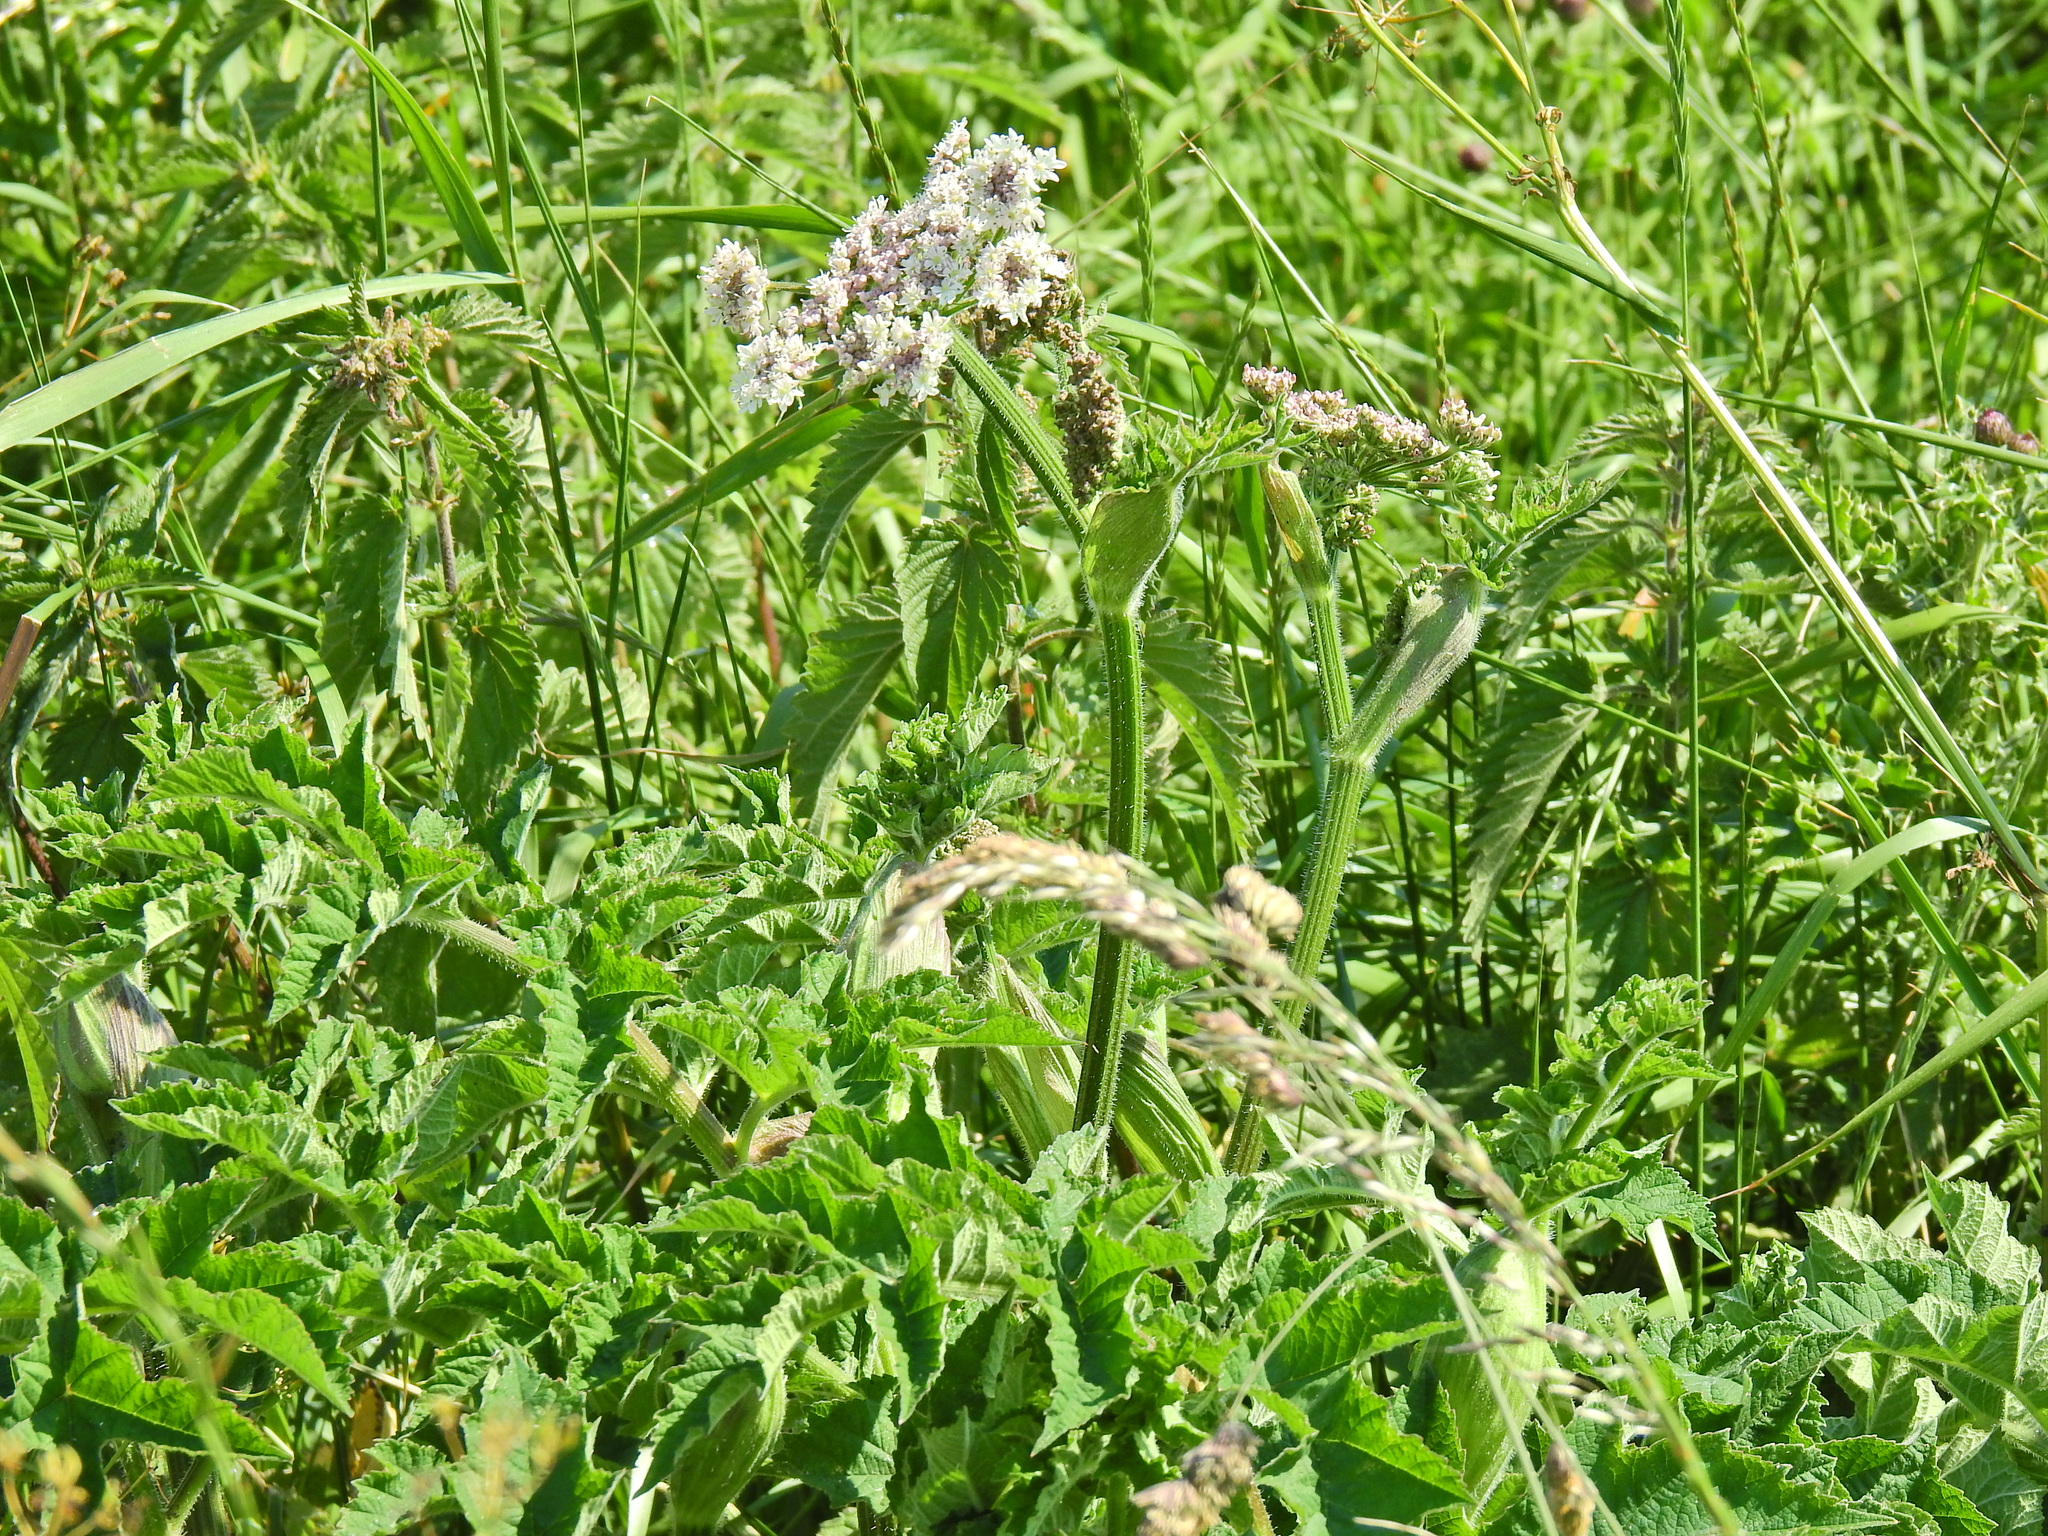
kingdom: Plantae
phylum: Tracheophyta
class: Magnoliopsida
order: Apiales
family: Apiaceae
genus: Heracleum
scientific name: Heracleum sphondylium
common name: Hogweed
